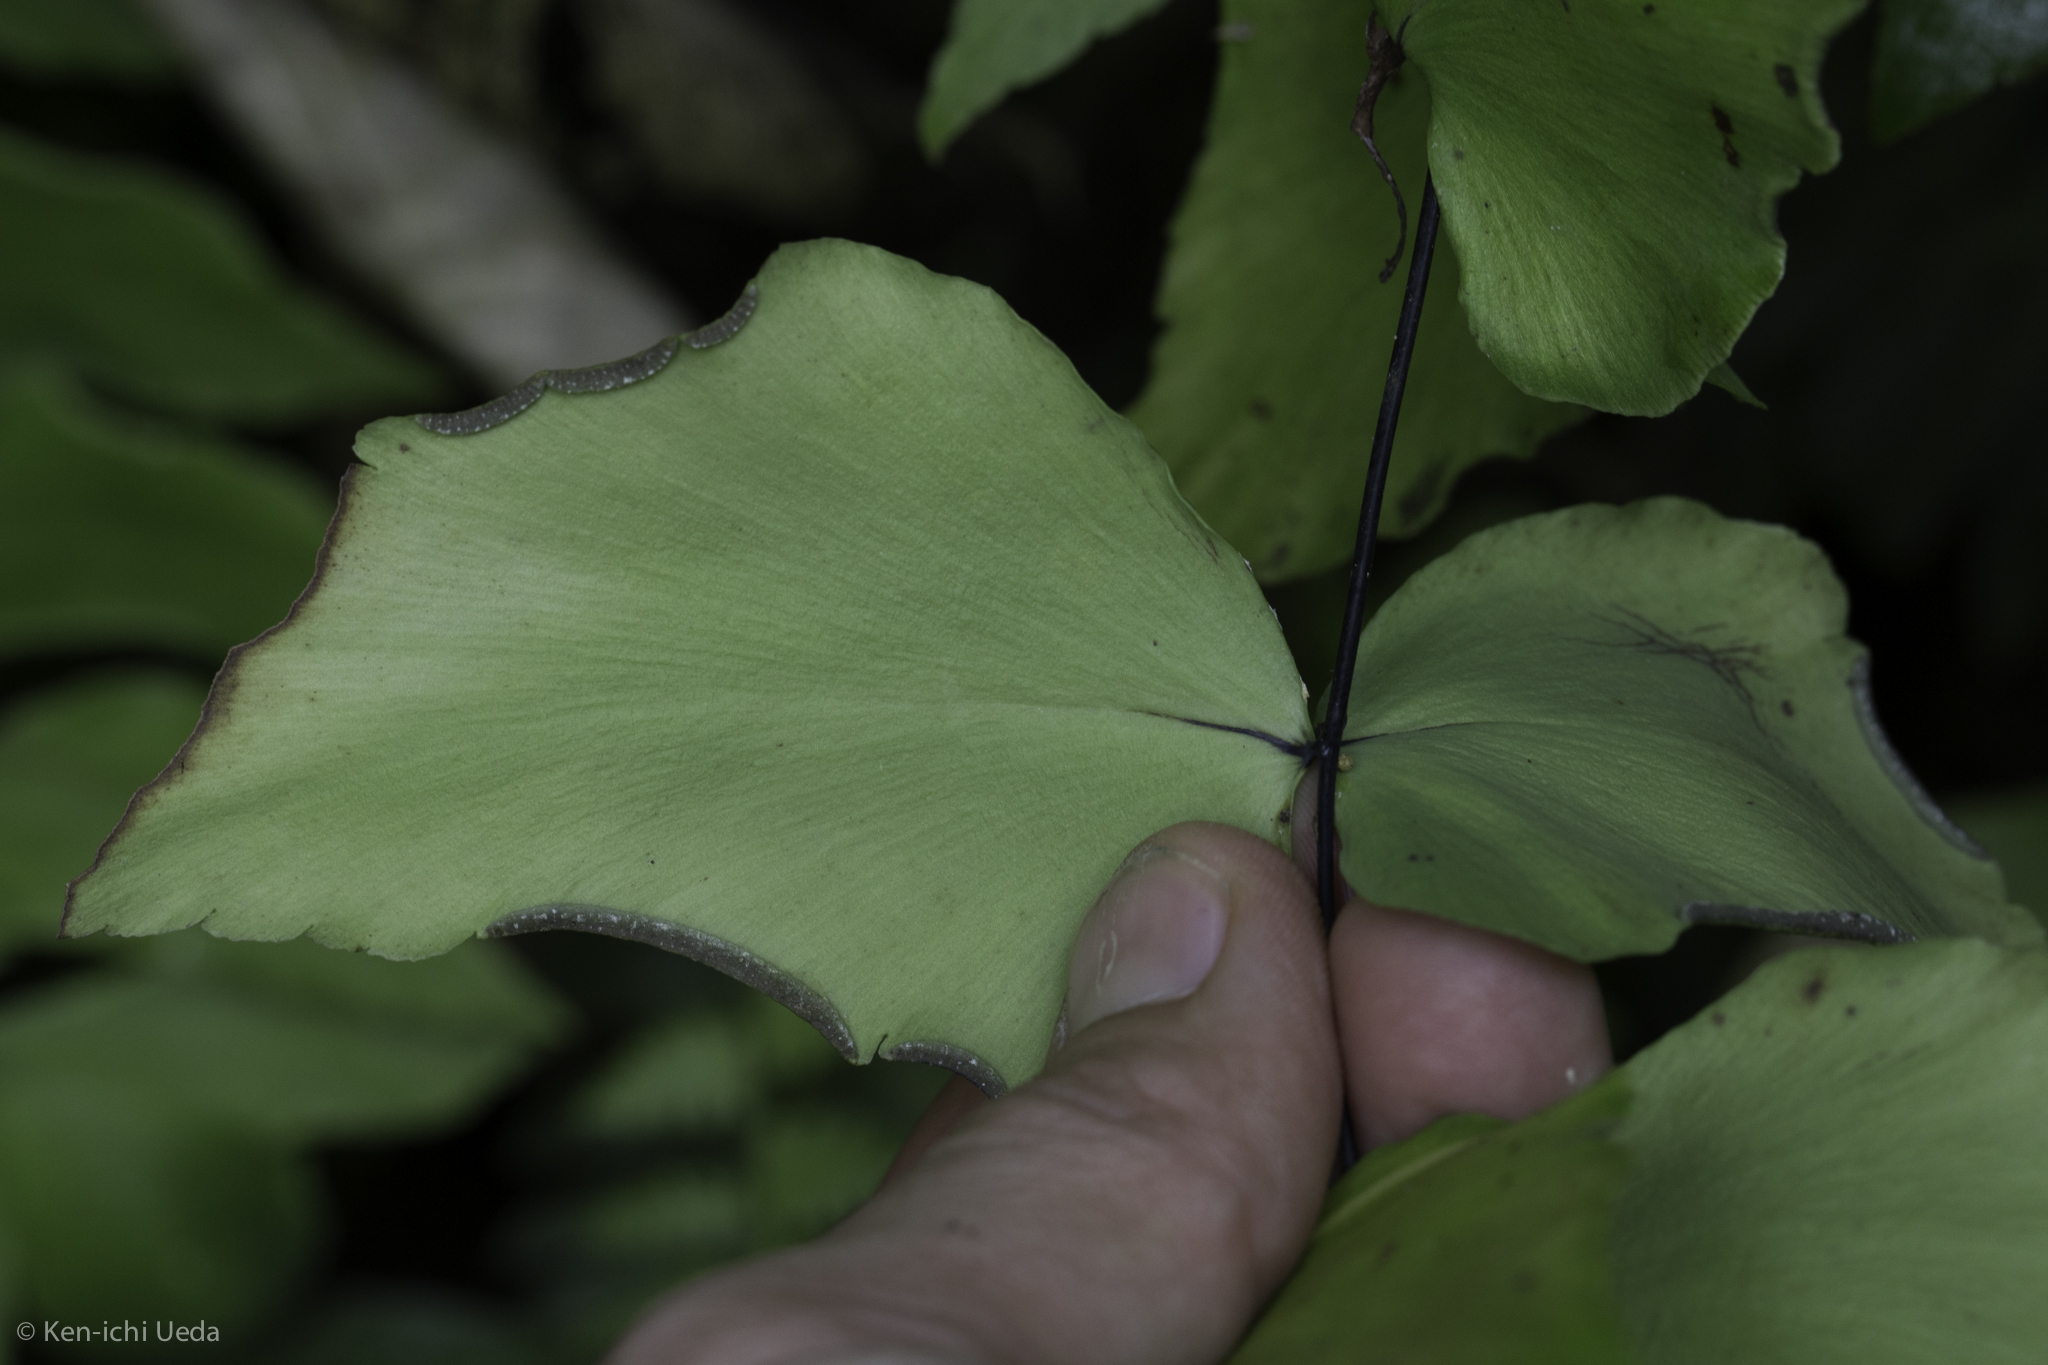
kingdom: Plantae
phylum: Tracheophyta
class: Polypodiopsida
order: Polypodiales
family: Pteridaceae
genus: Adiantum
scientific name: Adiantum macrophyllum
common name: Largeleaf maidenhair
